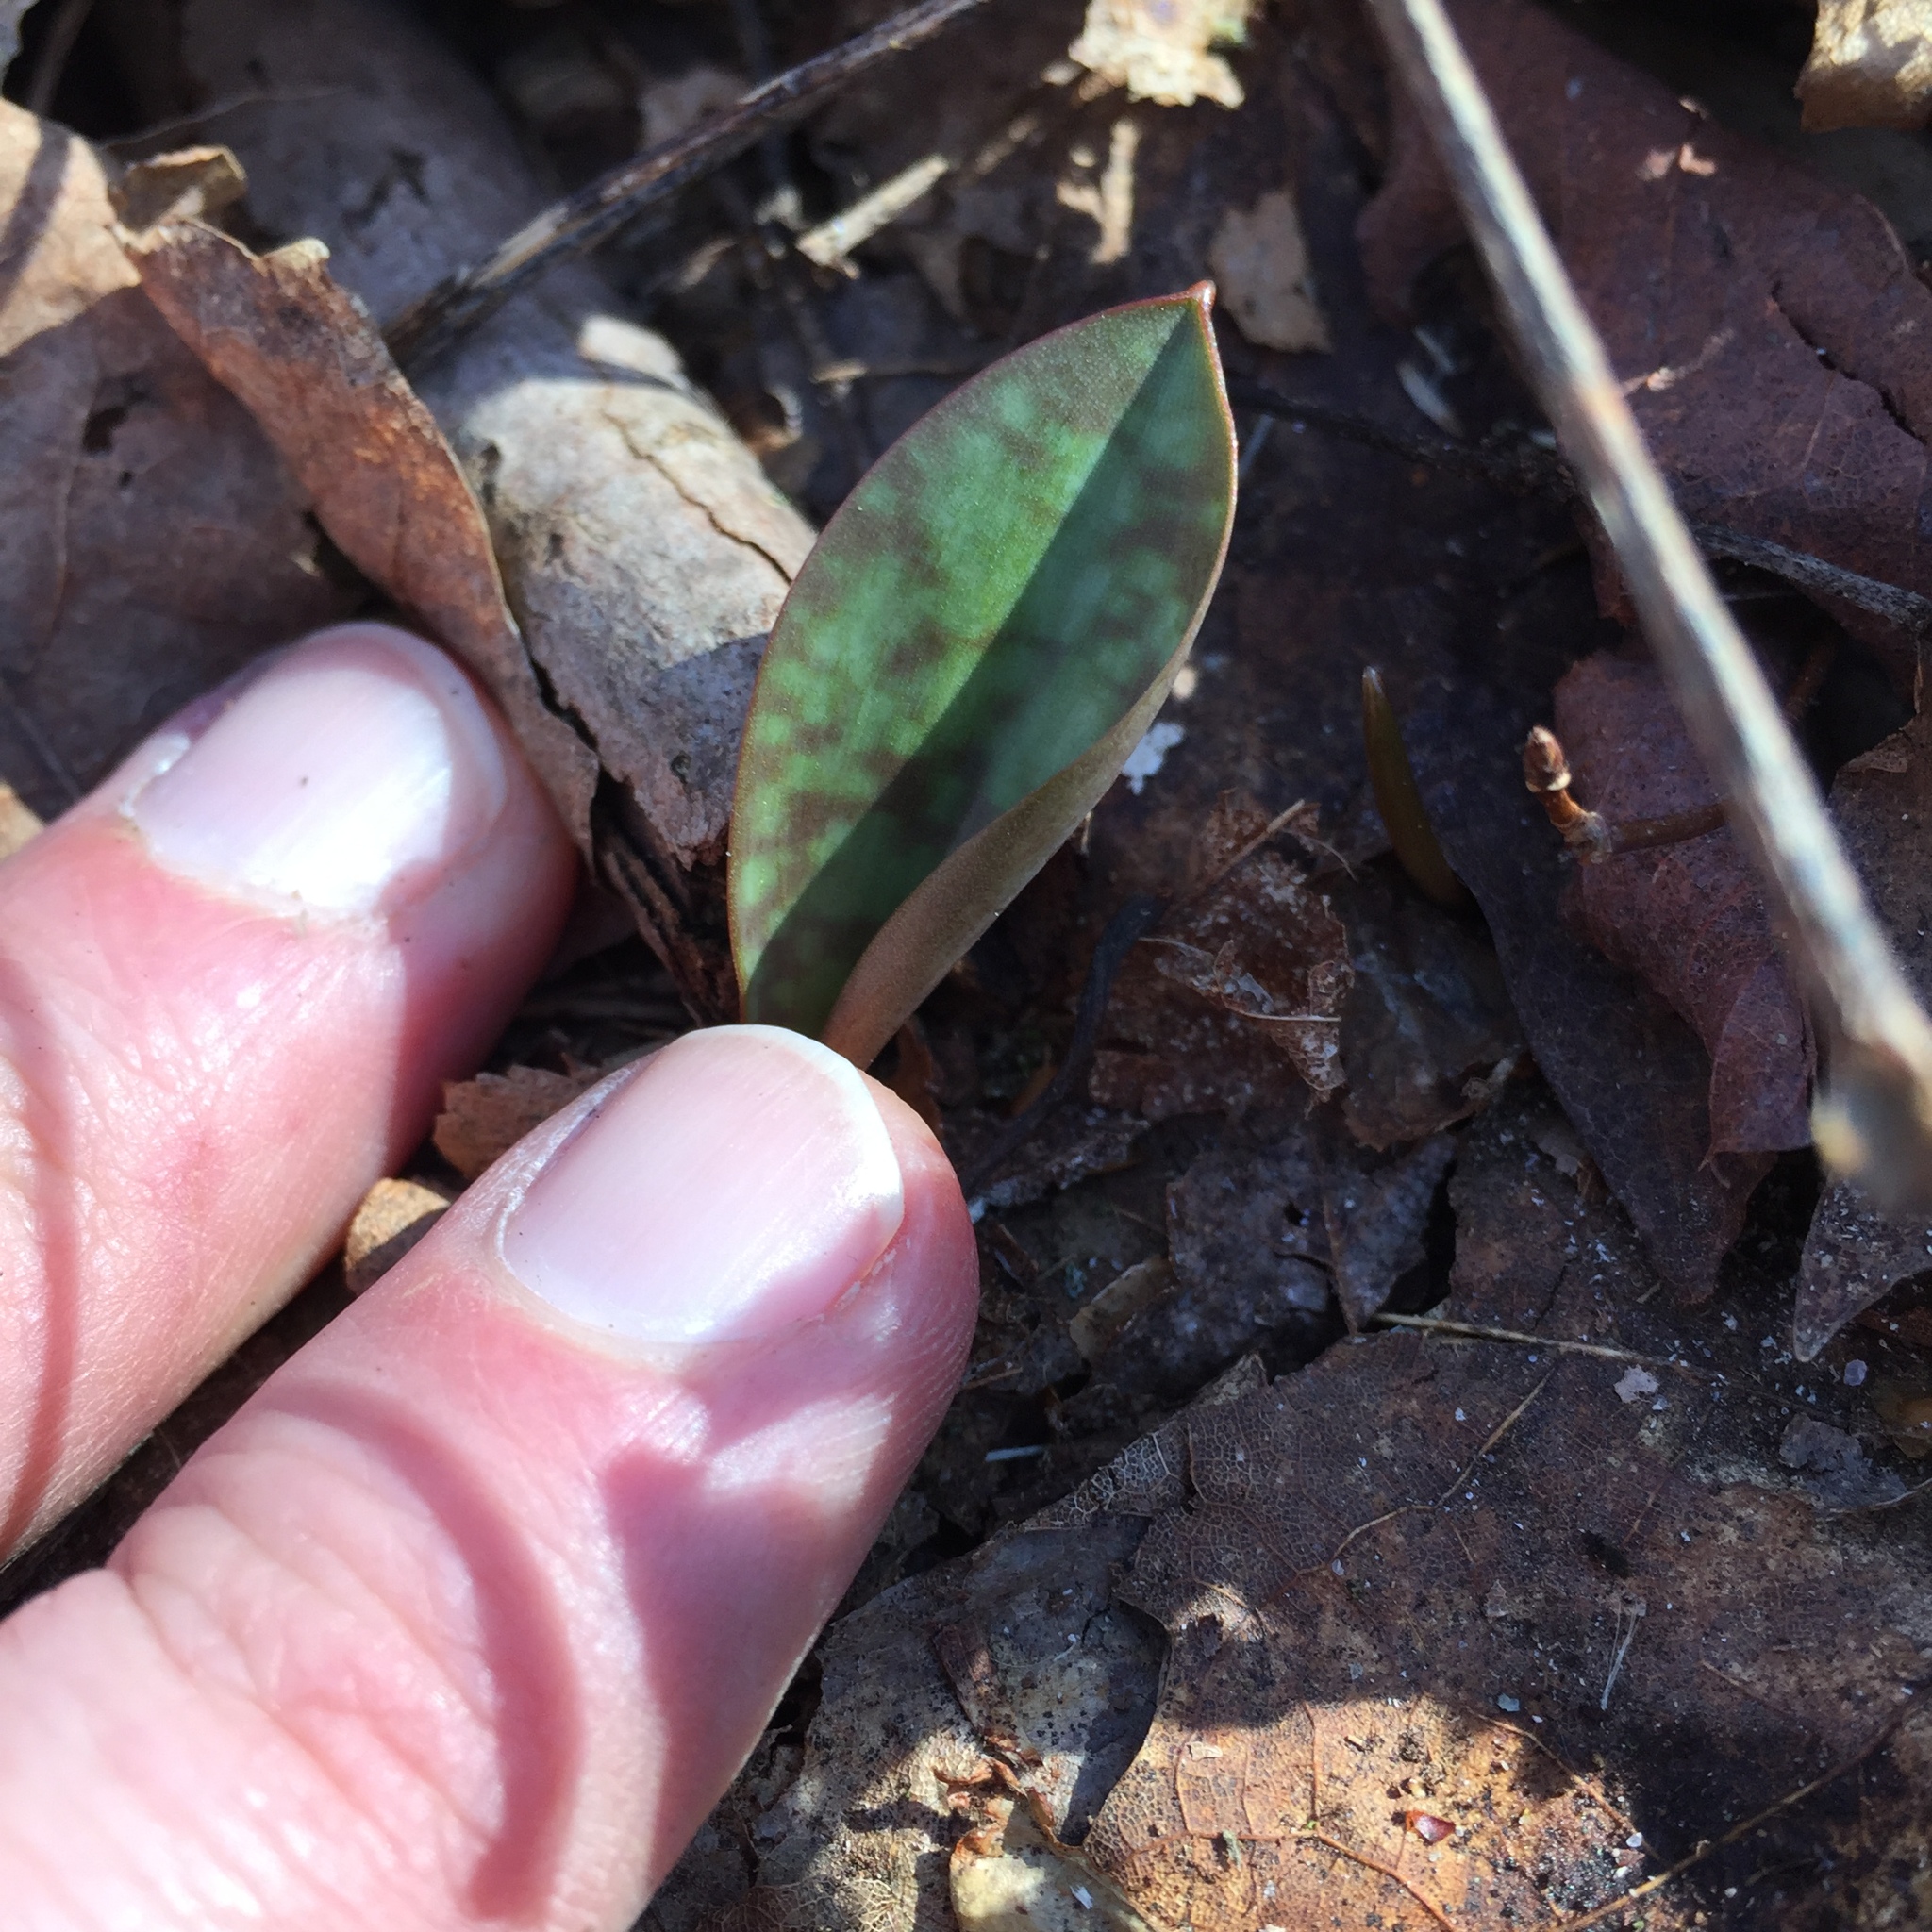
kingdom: Plantae
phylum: Tracheophyta
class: Liliopsida
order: Liliales
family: Liliaceae
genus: Erythronium
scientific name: Erythronium
